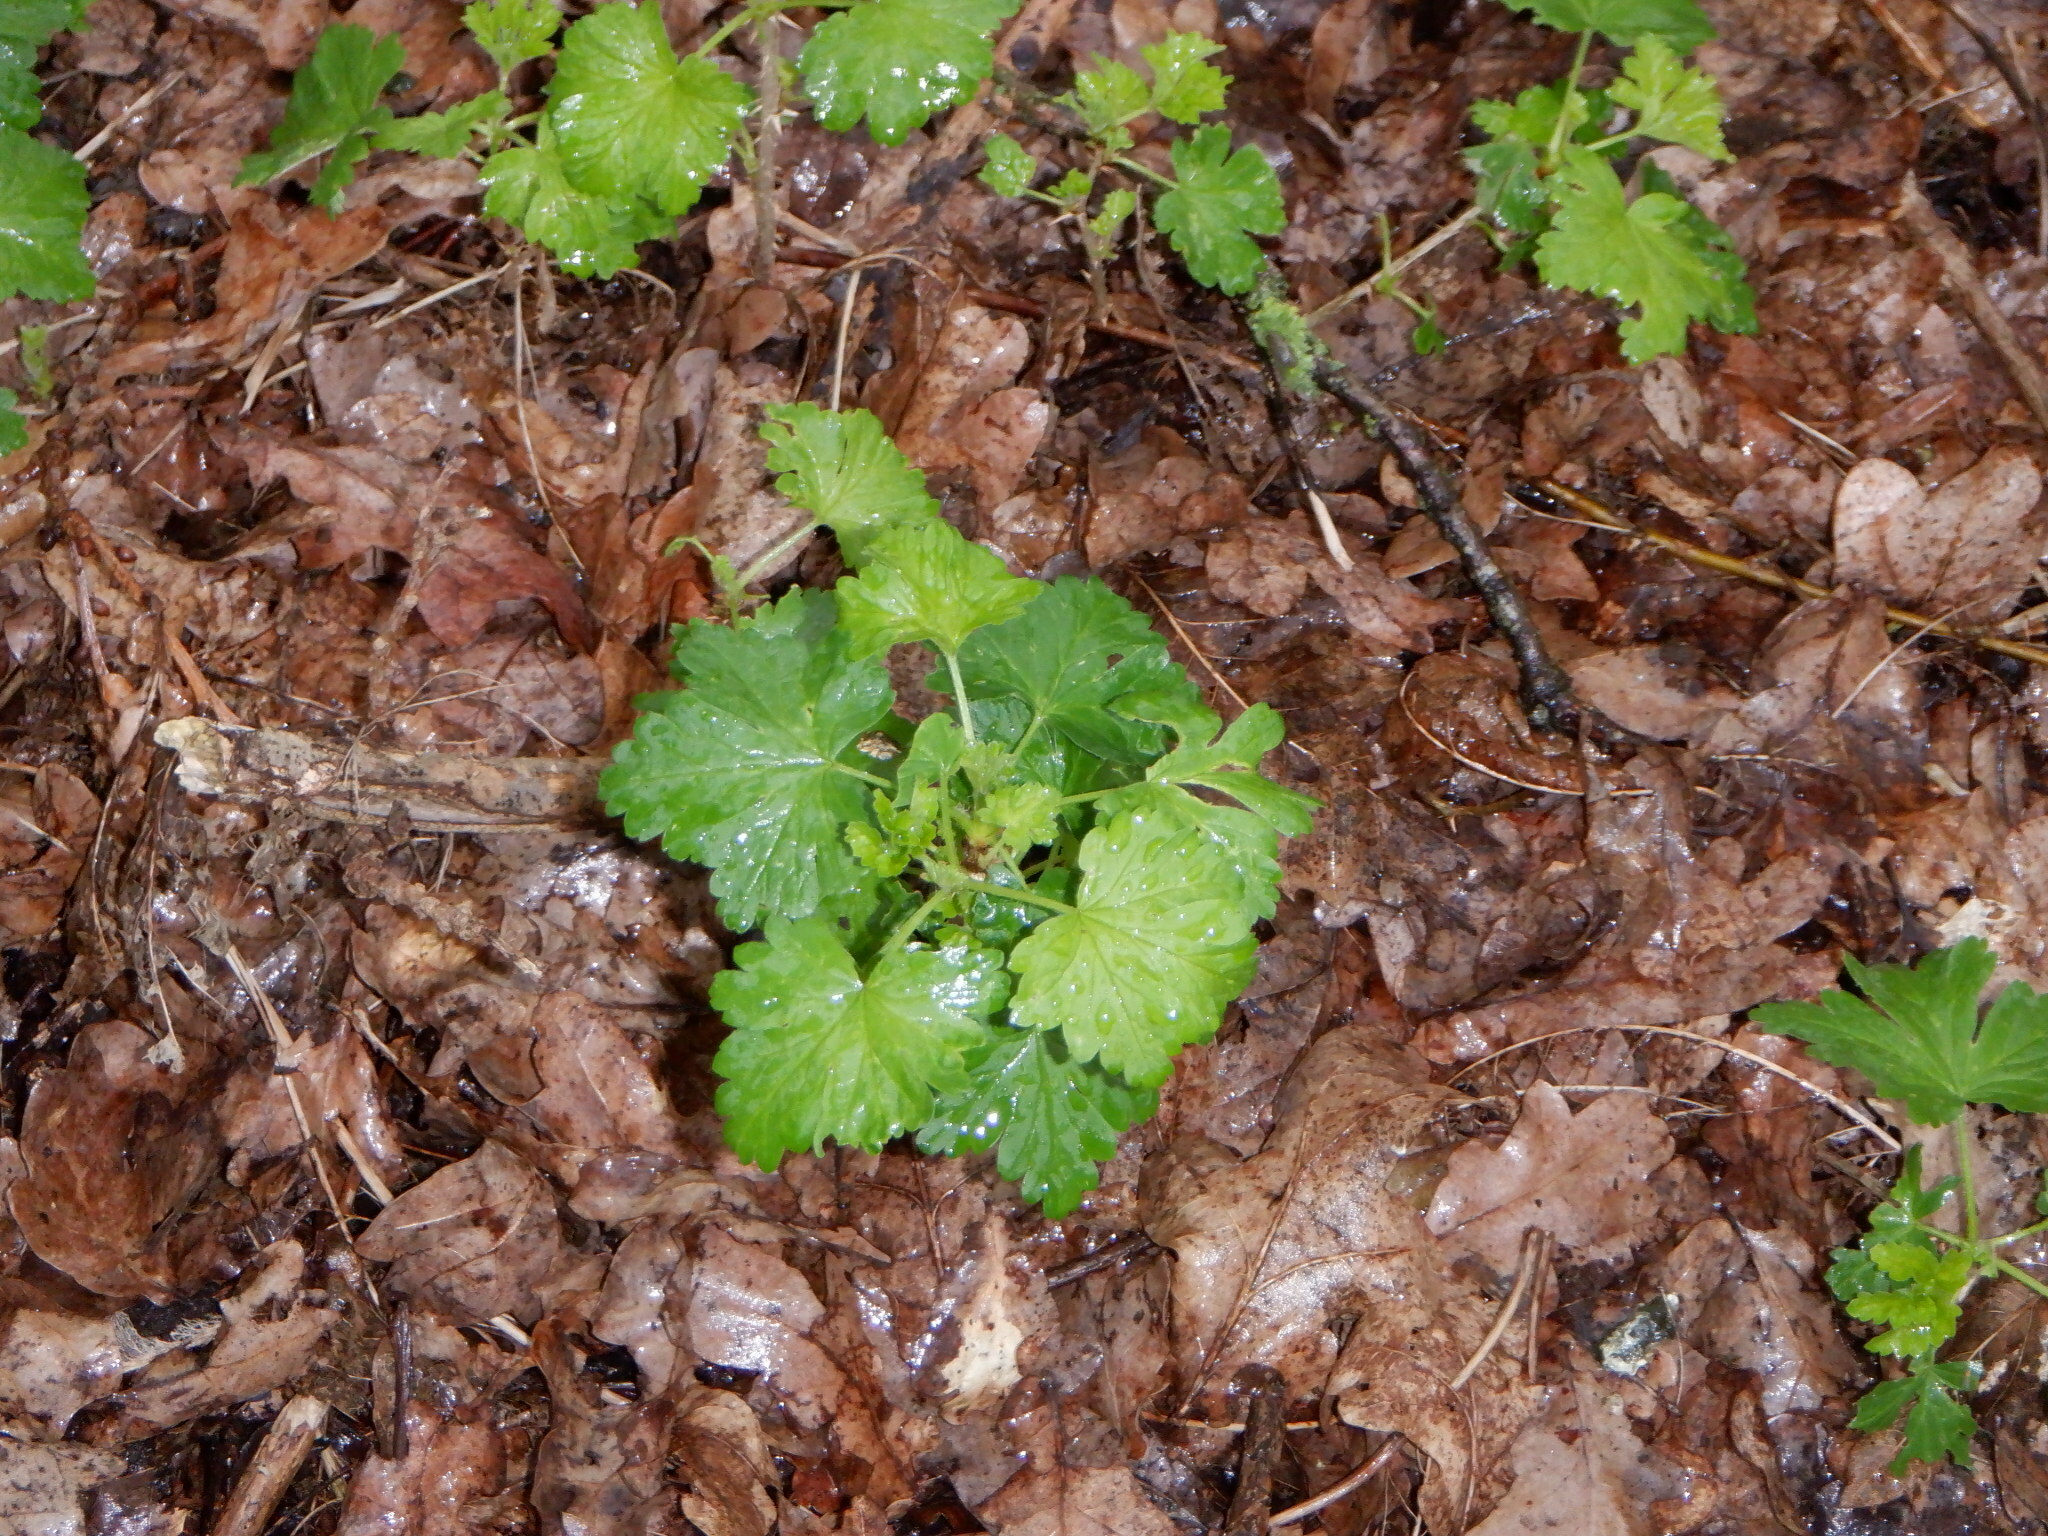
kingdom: Plantae
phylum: Tracheophyta
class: Magnoliopsida
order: Saxifragales
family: Grossulariaceae
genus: Ribes
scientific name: Ribes uva-crispa
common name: Gooseberry
